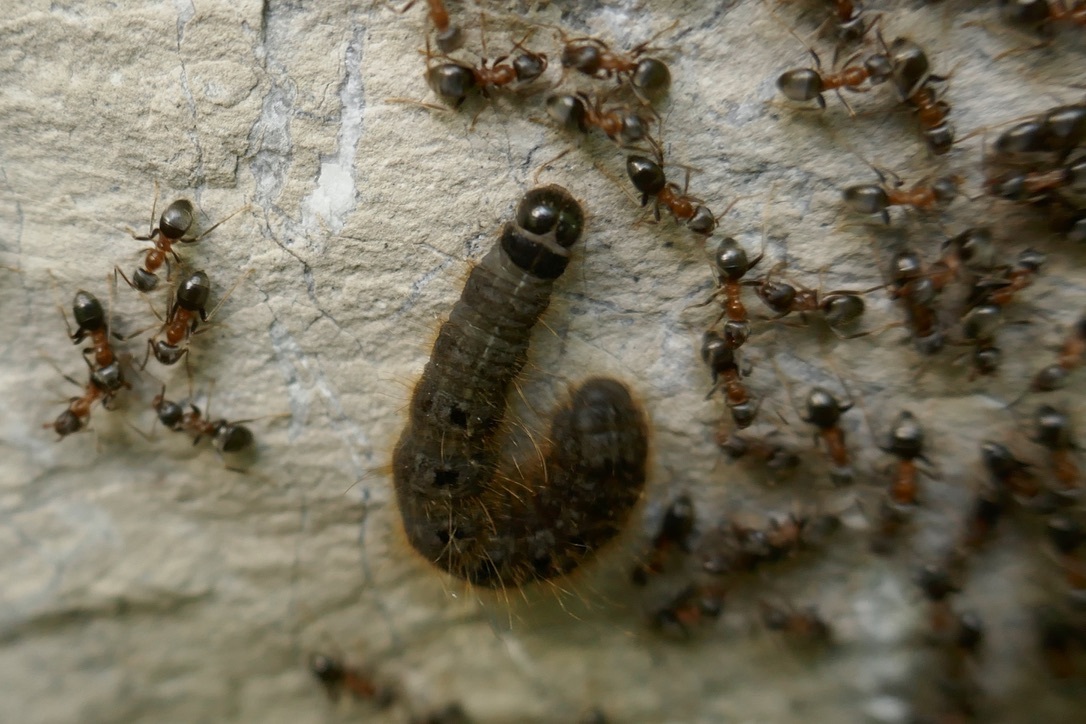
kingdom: Animalia
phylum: Arthropoda
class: Insecta
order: Lepidoptera
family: Noctuidae
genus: Conistra
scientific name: Conistra rubiginea
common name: Dotted chestnut
